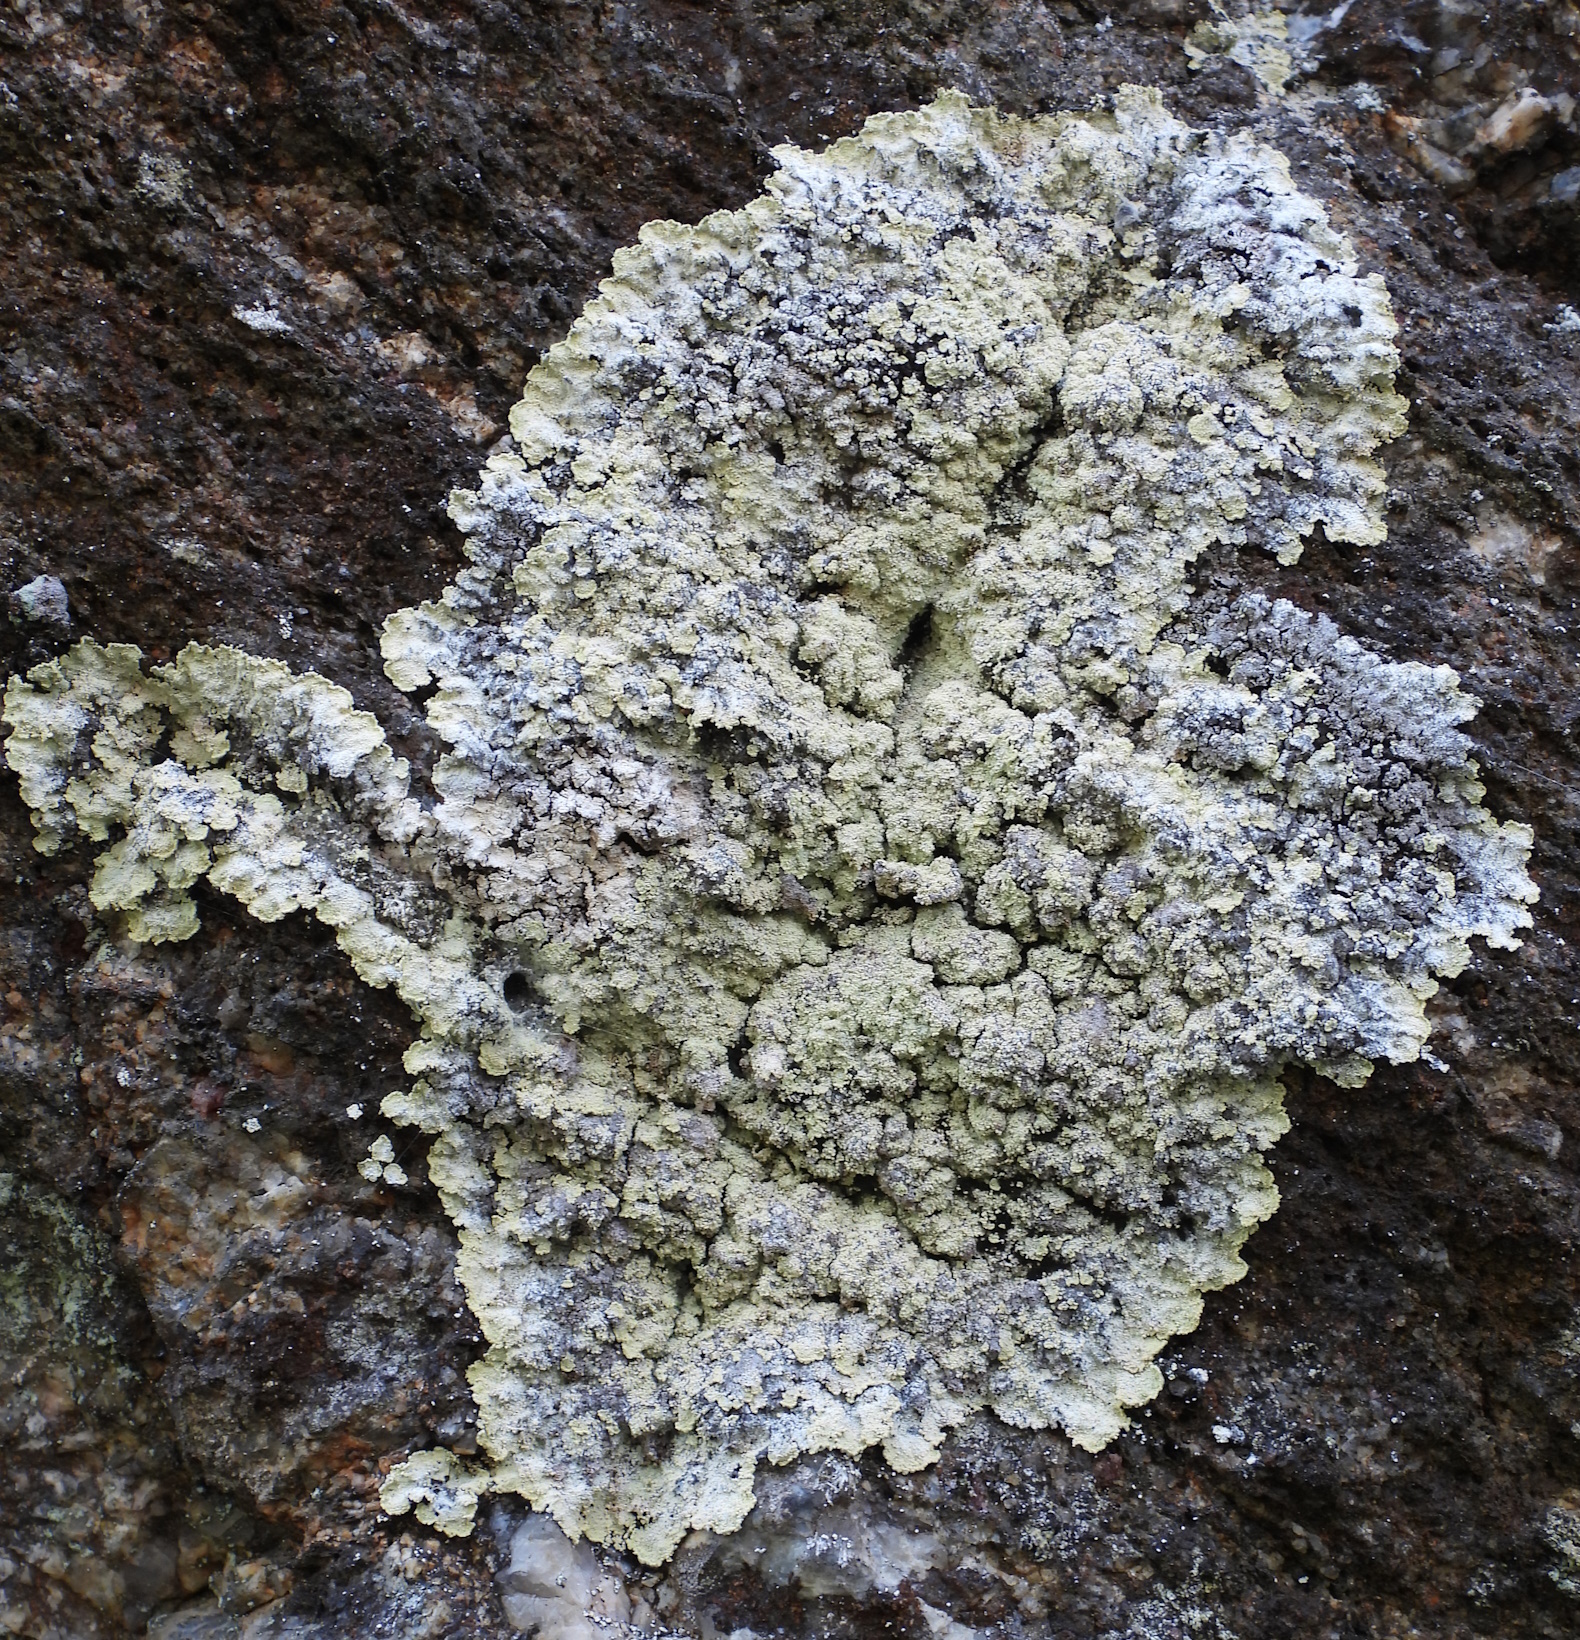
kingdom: Fungi
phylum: Ascomycota
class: Lecanoromycetes
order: Lecanorales
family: Stereocaulaceae
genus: Lepraria
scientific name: Lepraria membranacea
